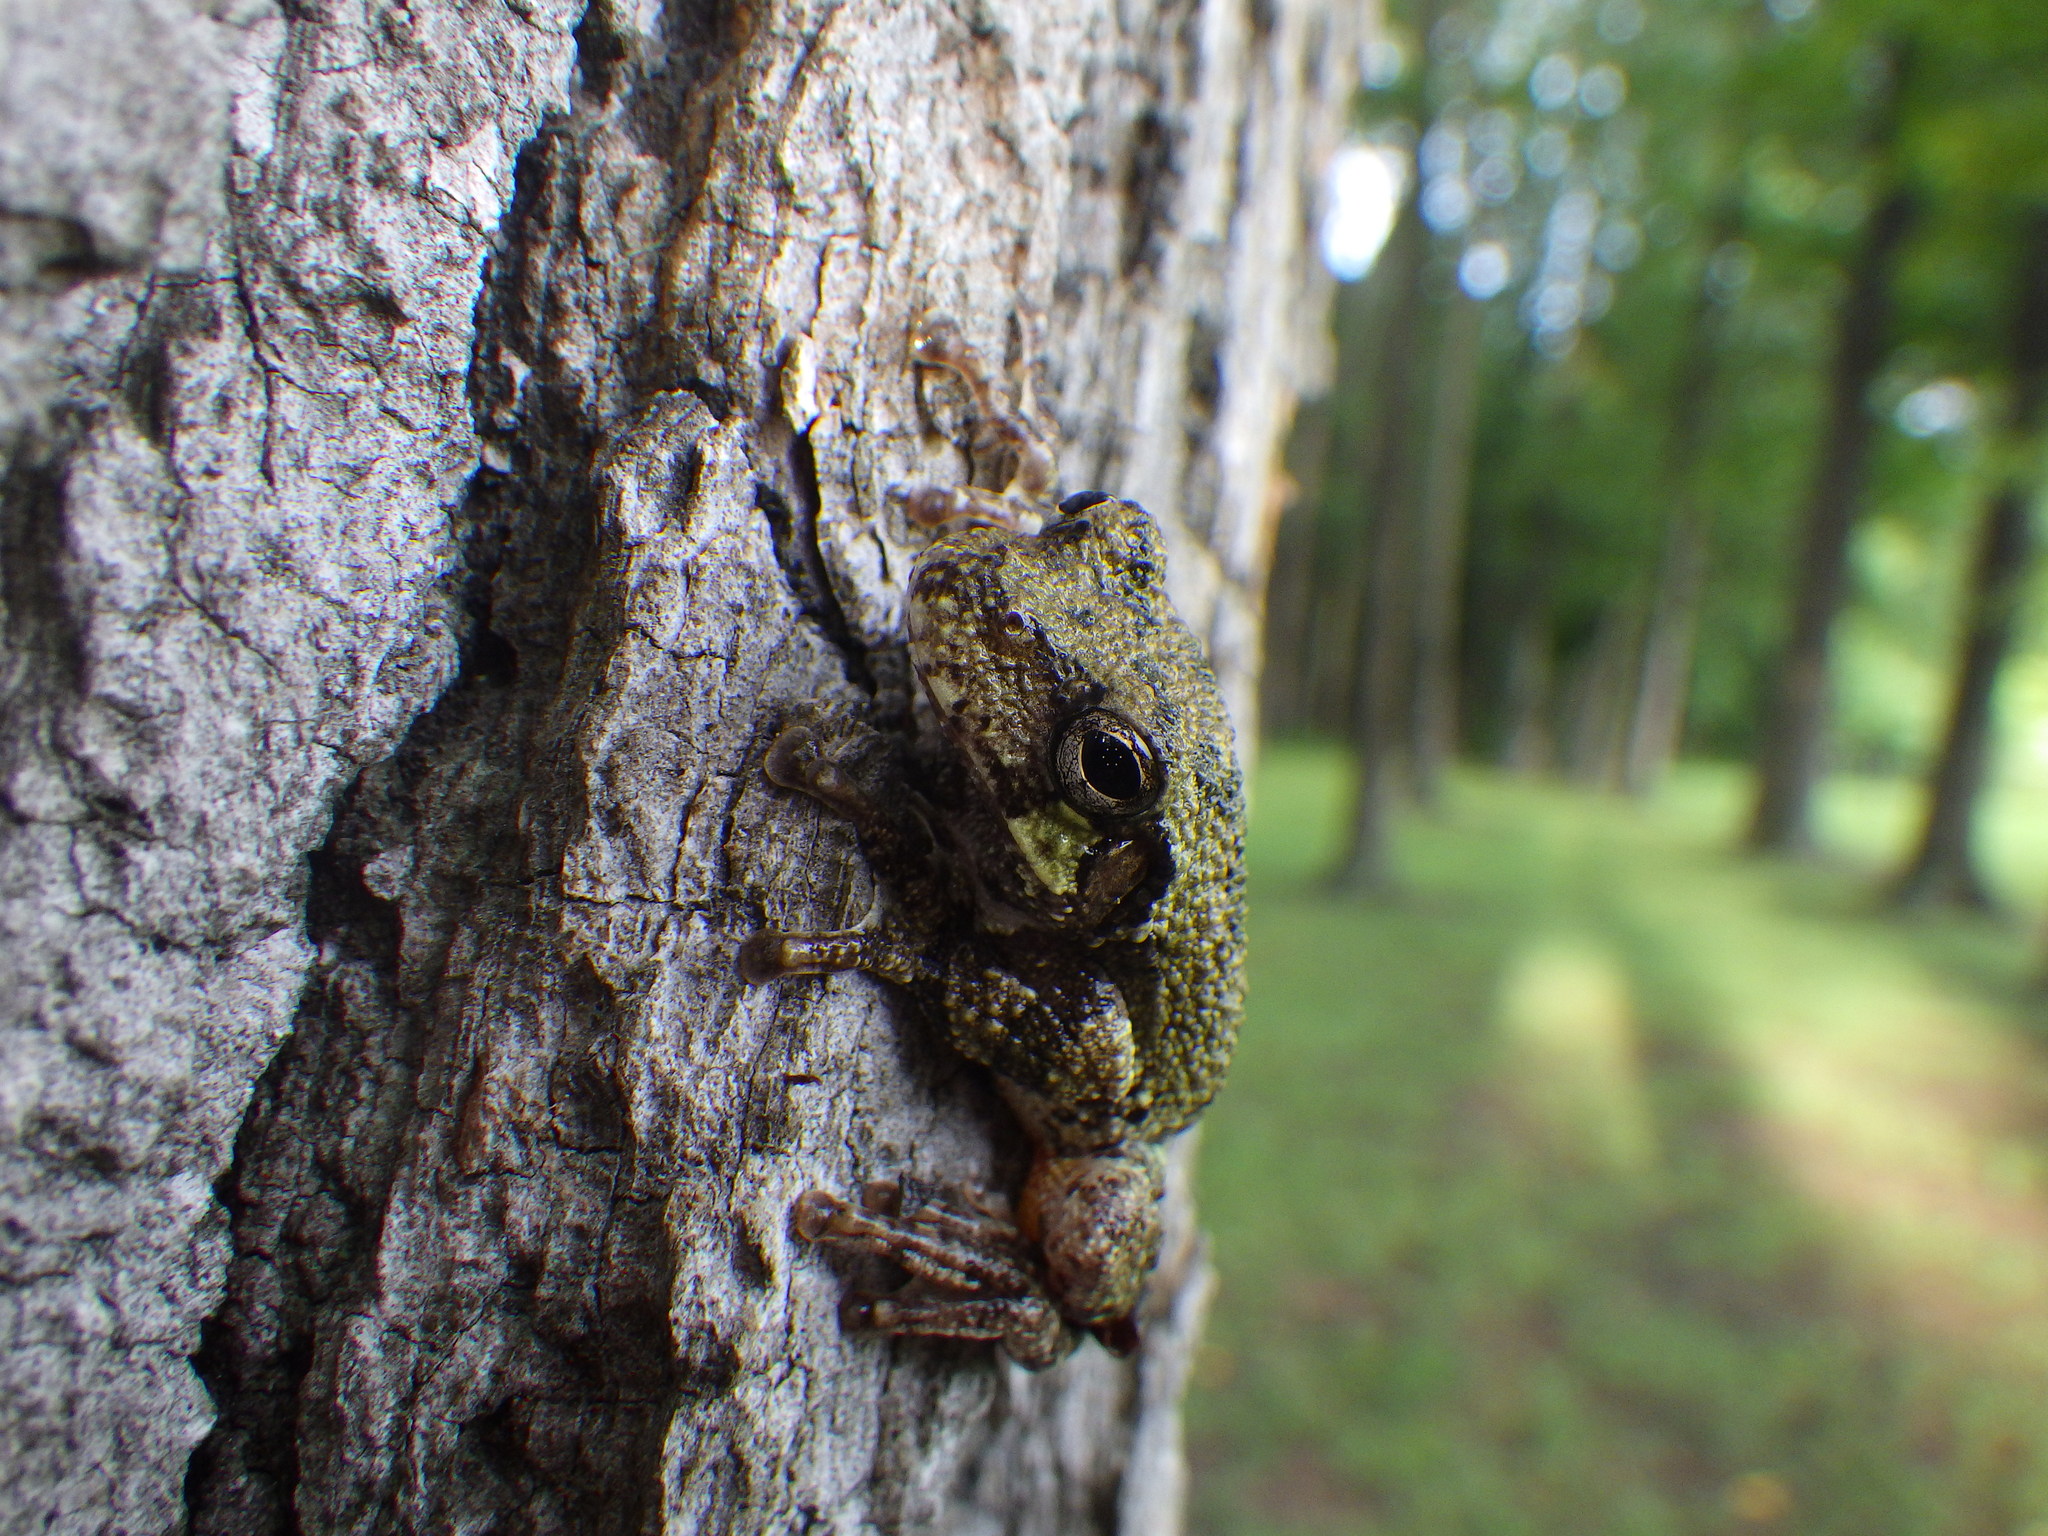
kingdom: Animalia
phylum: Chordata
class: Amphibia
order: Anura
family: Hylidae
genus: Dryophytes
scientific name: Dryophytes chrysoscelis
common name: Cope's gray treefrog
